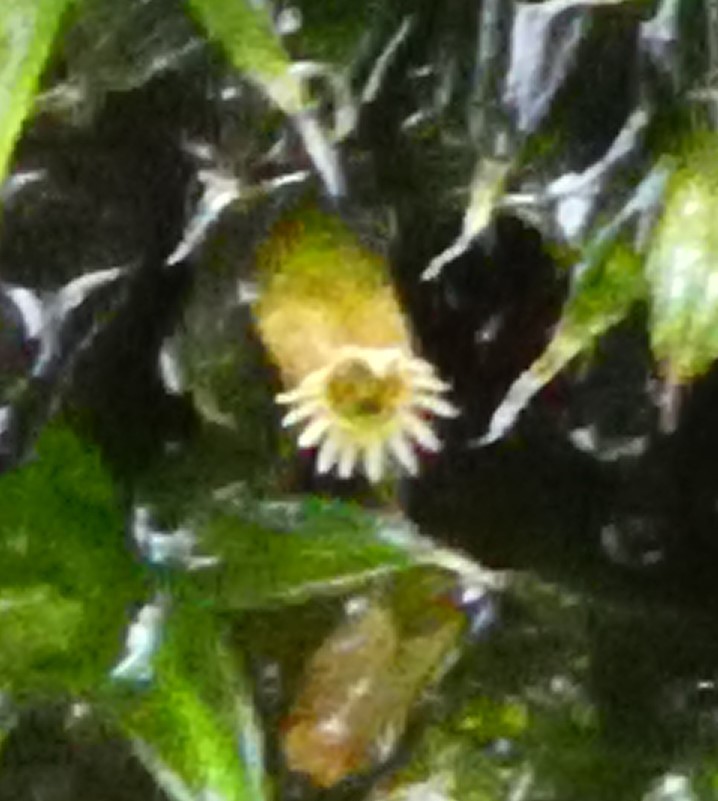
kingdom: Plantae
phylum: Bryophyta
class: Bryopsida
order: Orthotrichales
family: Orthotrichaceae
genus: Orthotrichum
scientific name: Orthotrichum diaphanum
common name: White-tipped bristle-moss
